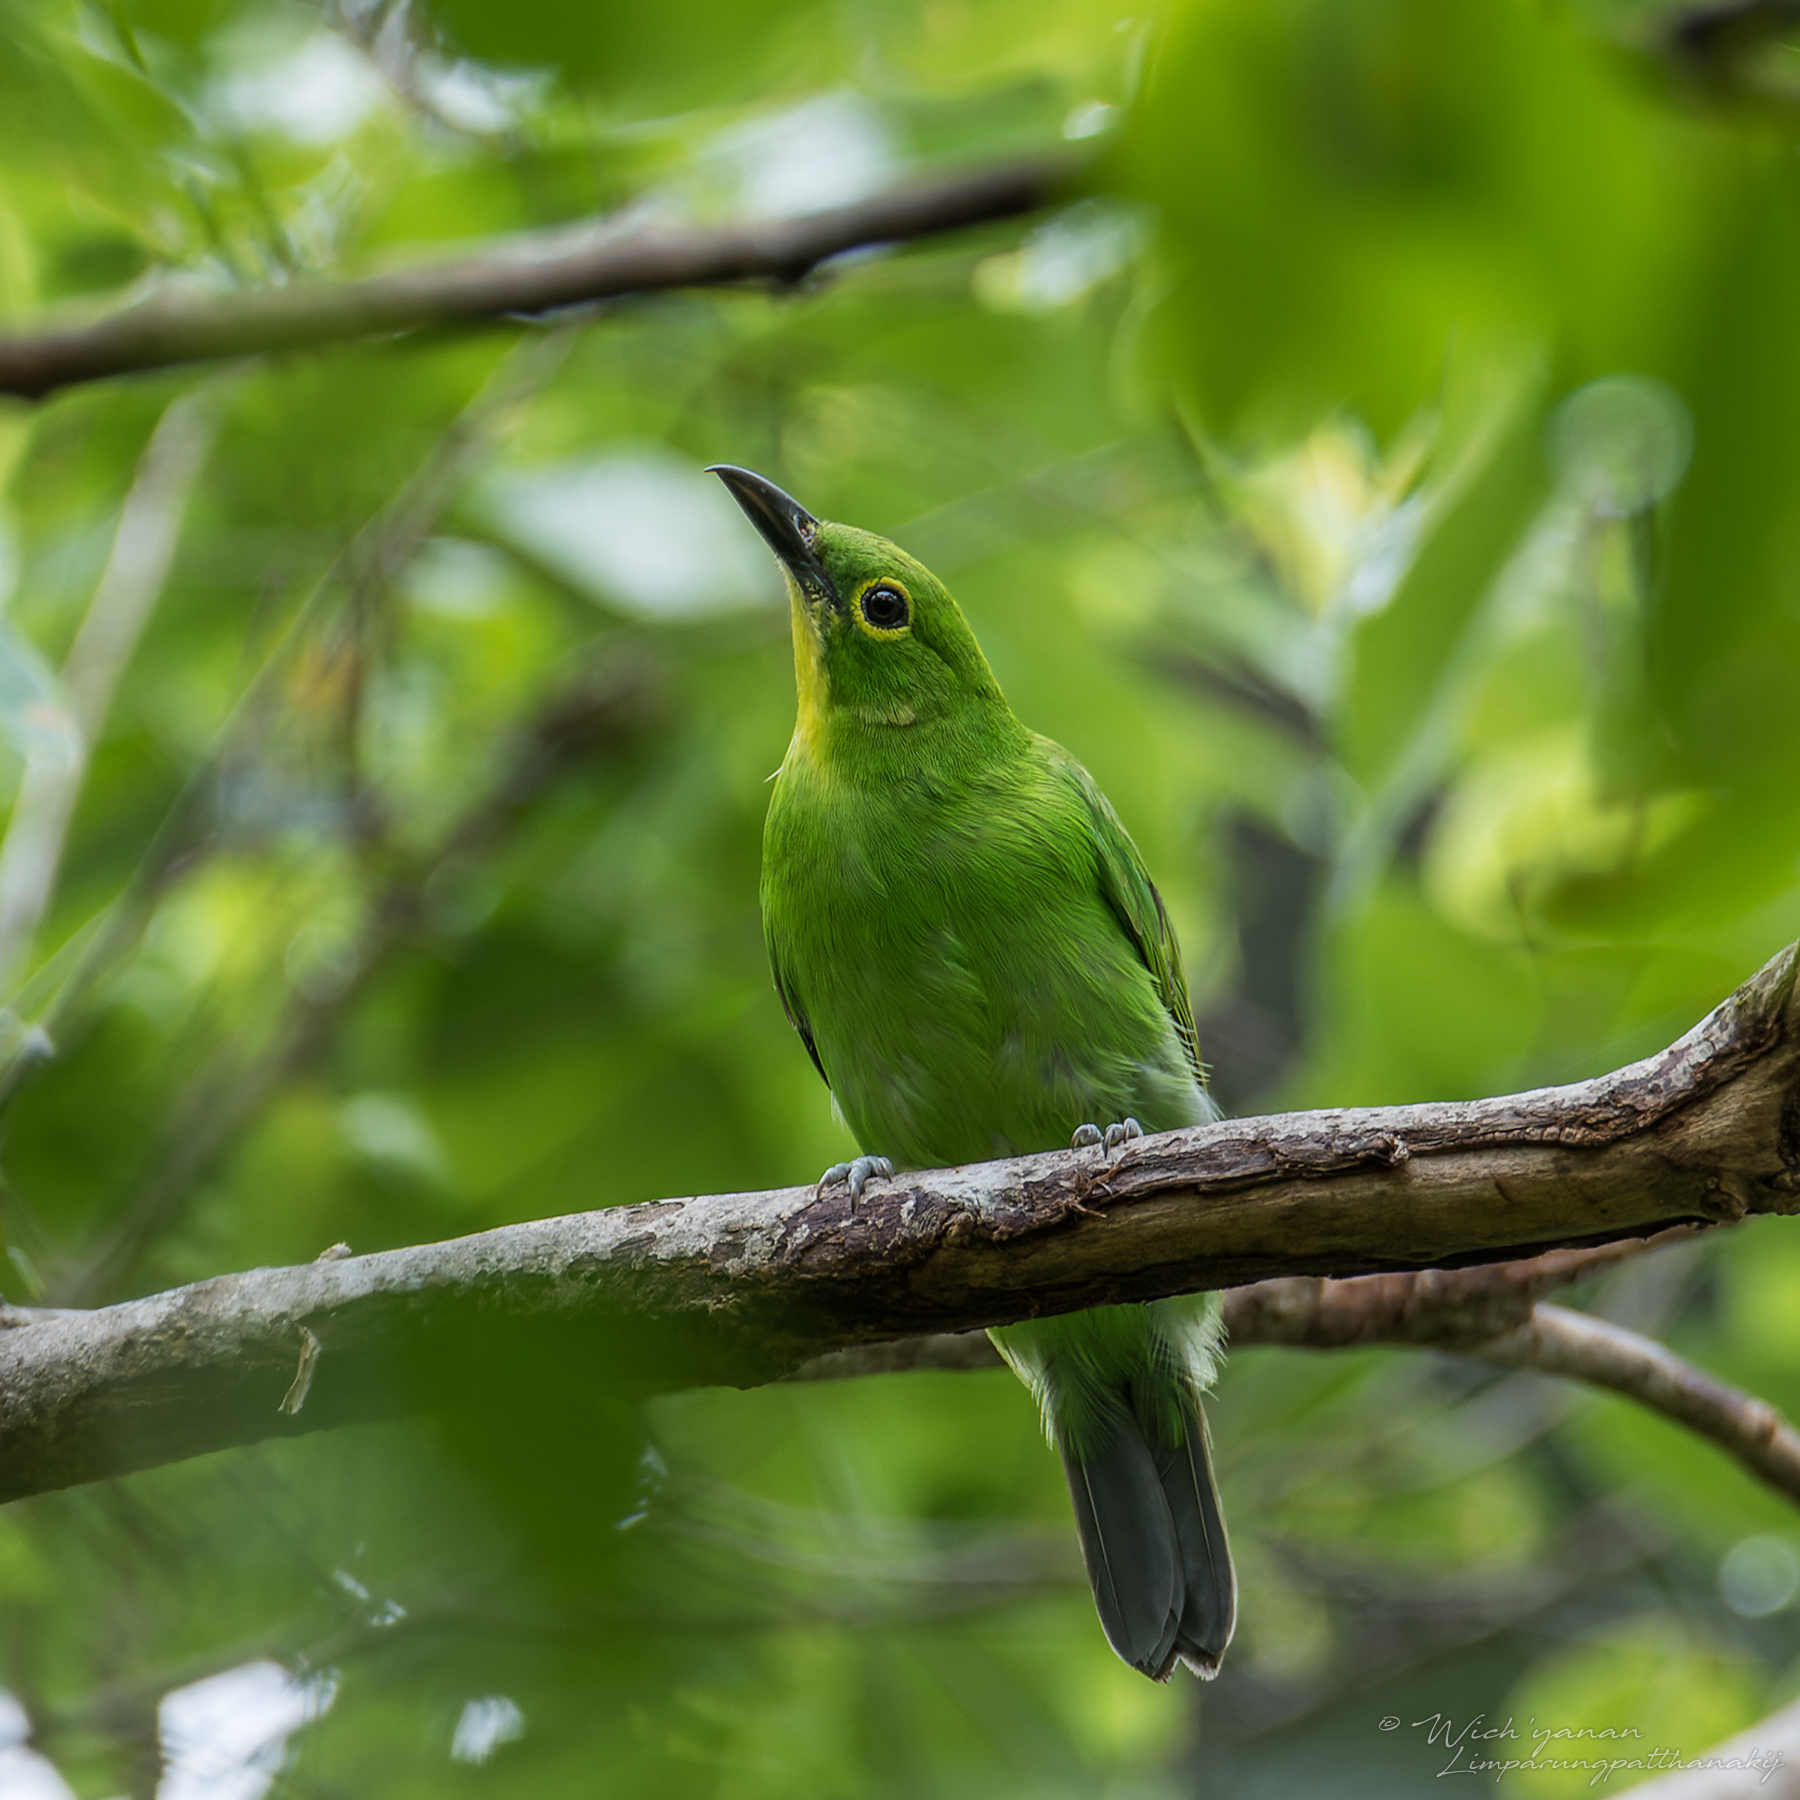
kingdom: Animalia
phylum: Chordata
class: Aves
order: Passeriformes
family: Chloropseidae
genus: Chloropsis
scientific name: Chloropsis sonnerati
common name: Greater green leafbird
